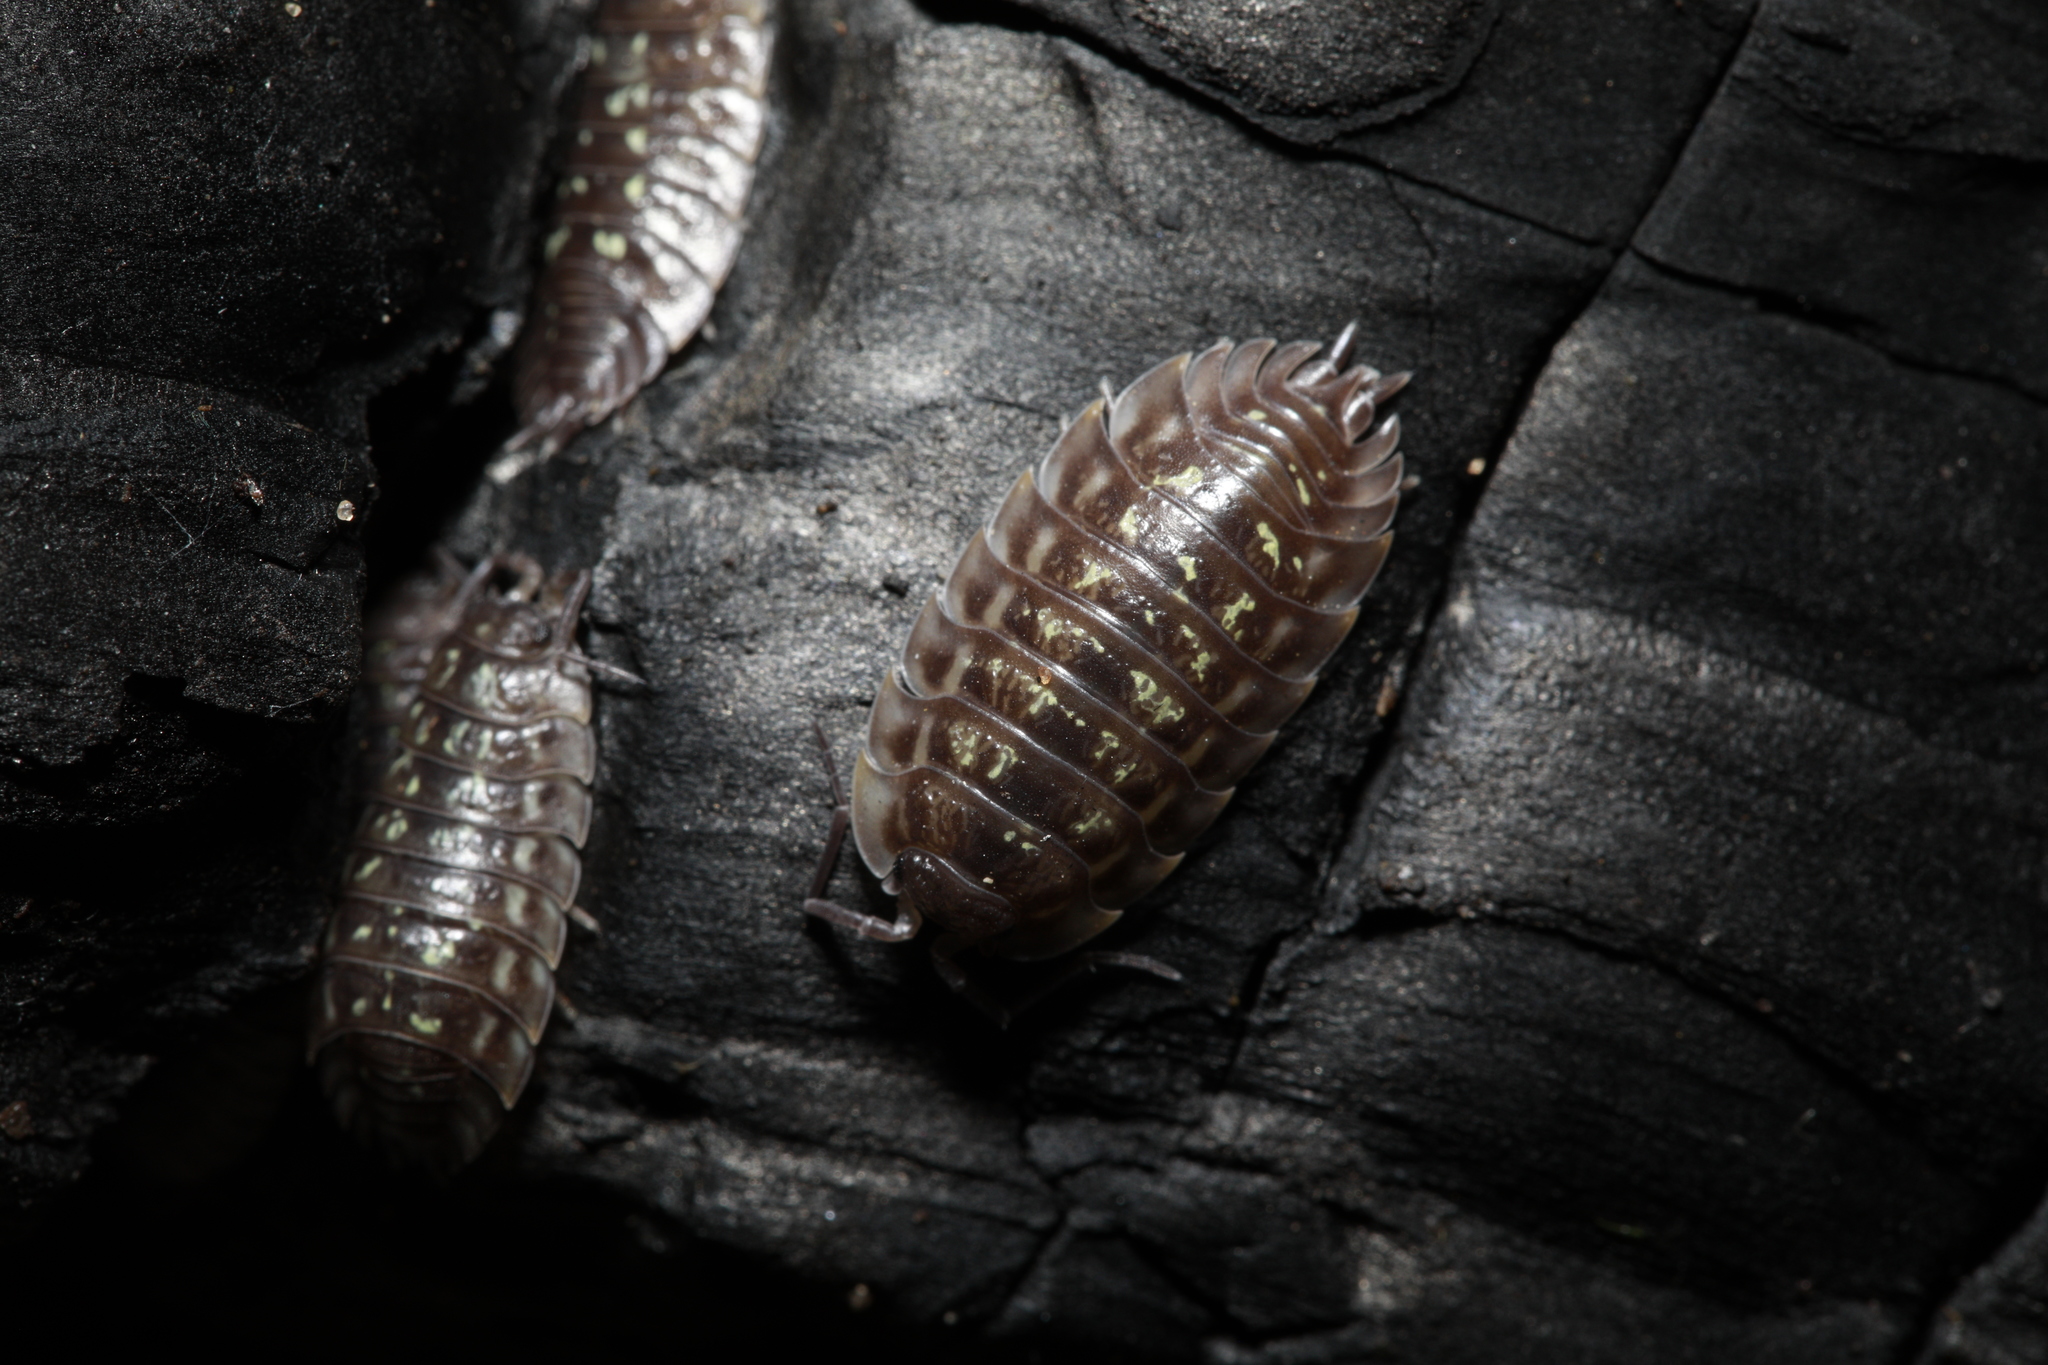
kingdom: Animalia
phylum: Arthropoda
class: Malacostraca
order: Isopoda
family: Oniscidae
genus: Oniscus
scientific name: Oniscus asellus
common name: Common shiny woodlouse
